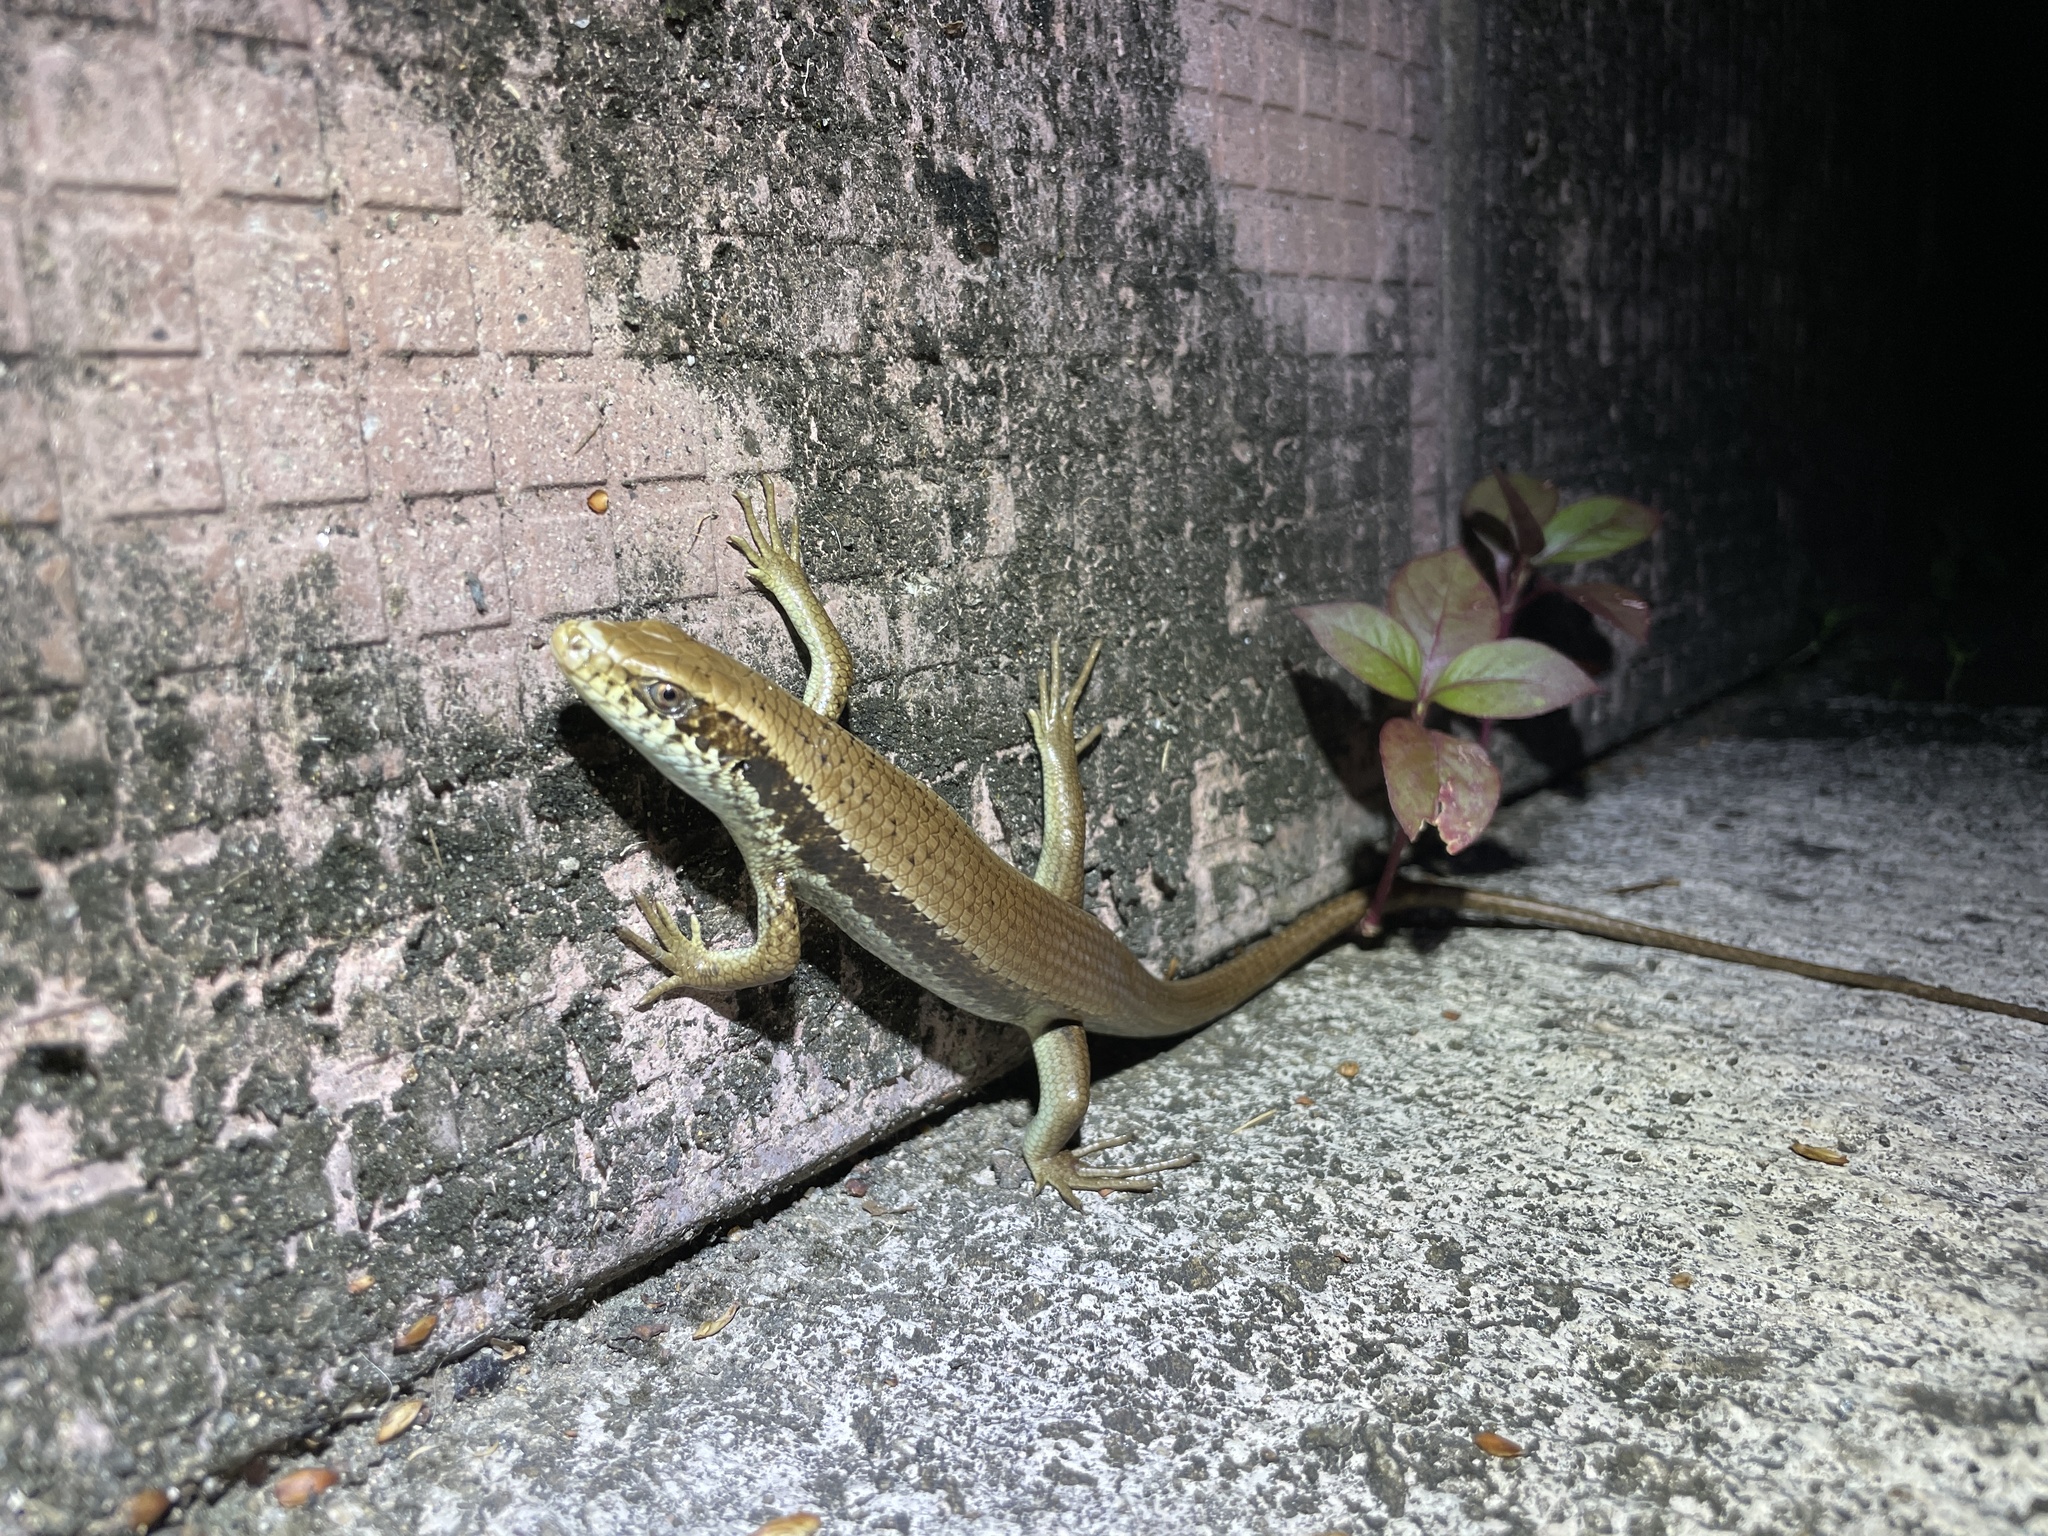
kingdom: Animalia
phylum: Chordata
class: Squamata
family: Scincidae
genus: Eutropis
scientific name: Eutropis longicaudata
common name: Long-tailed sun skink
